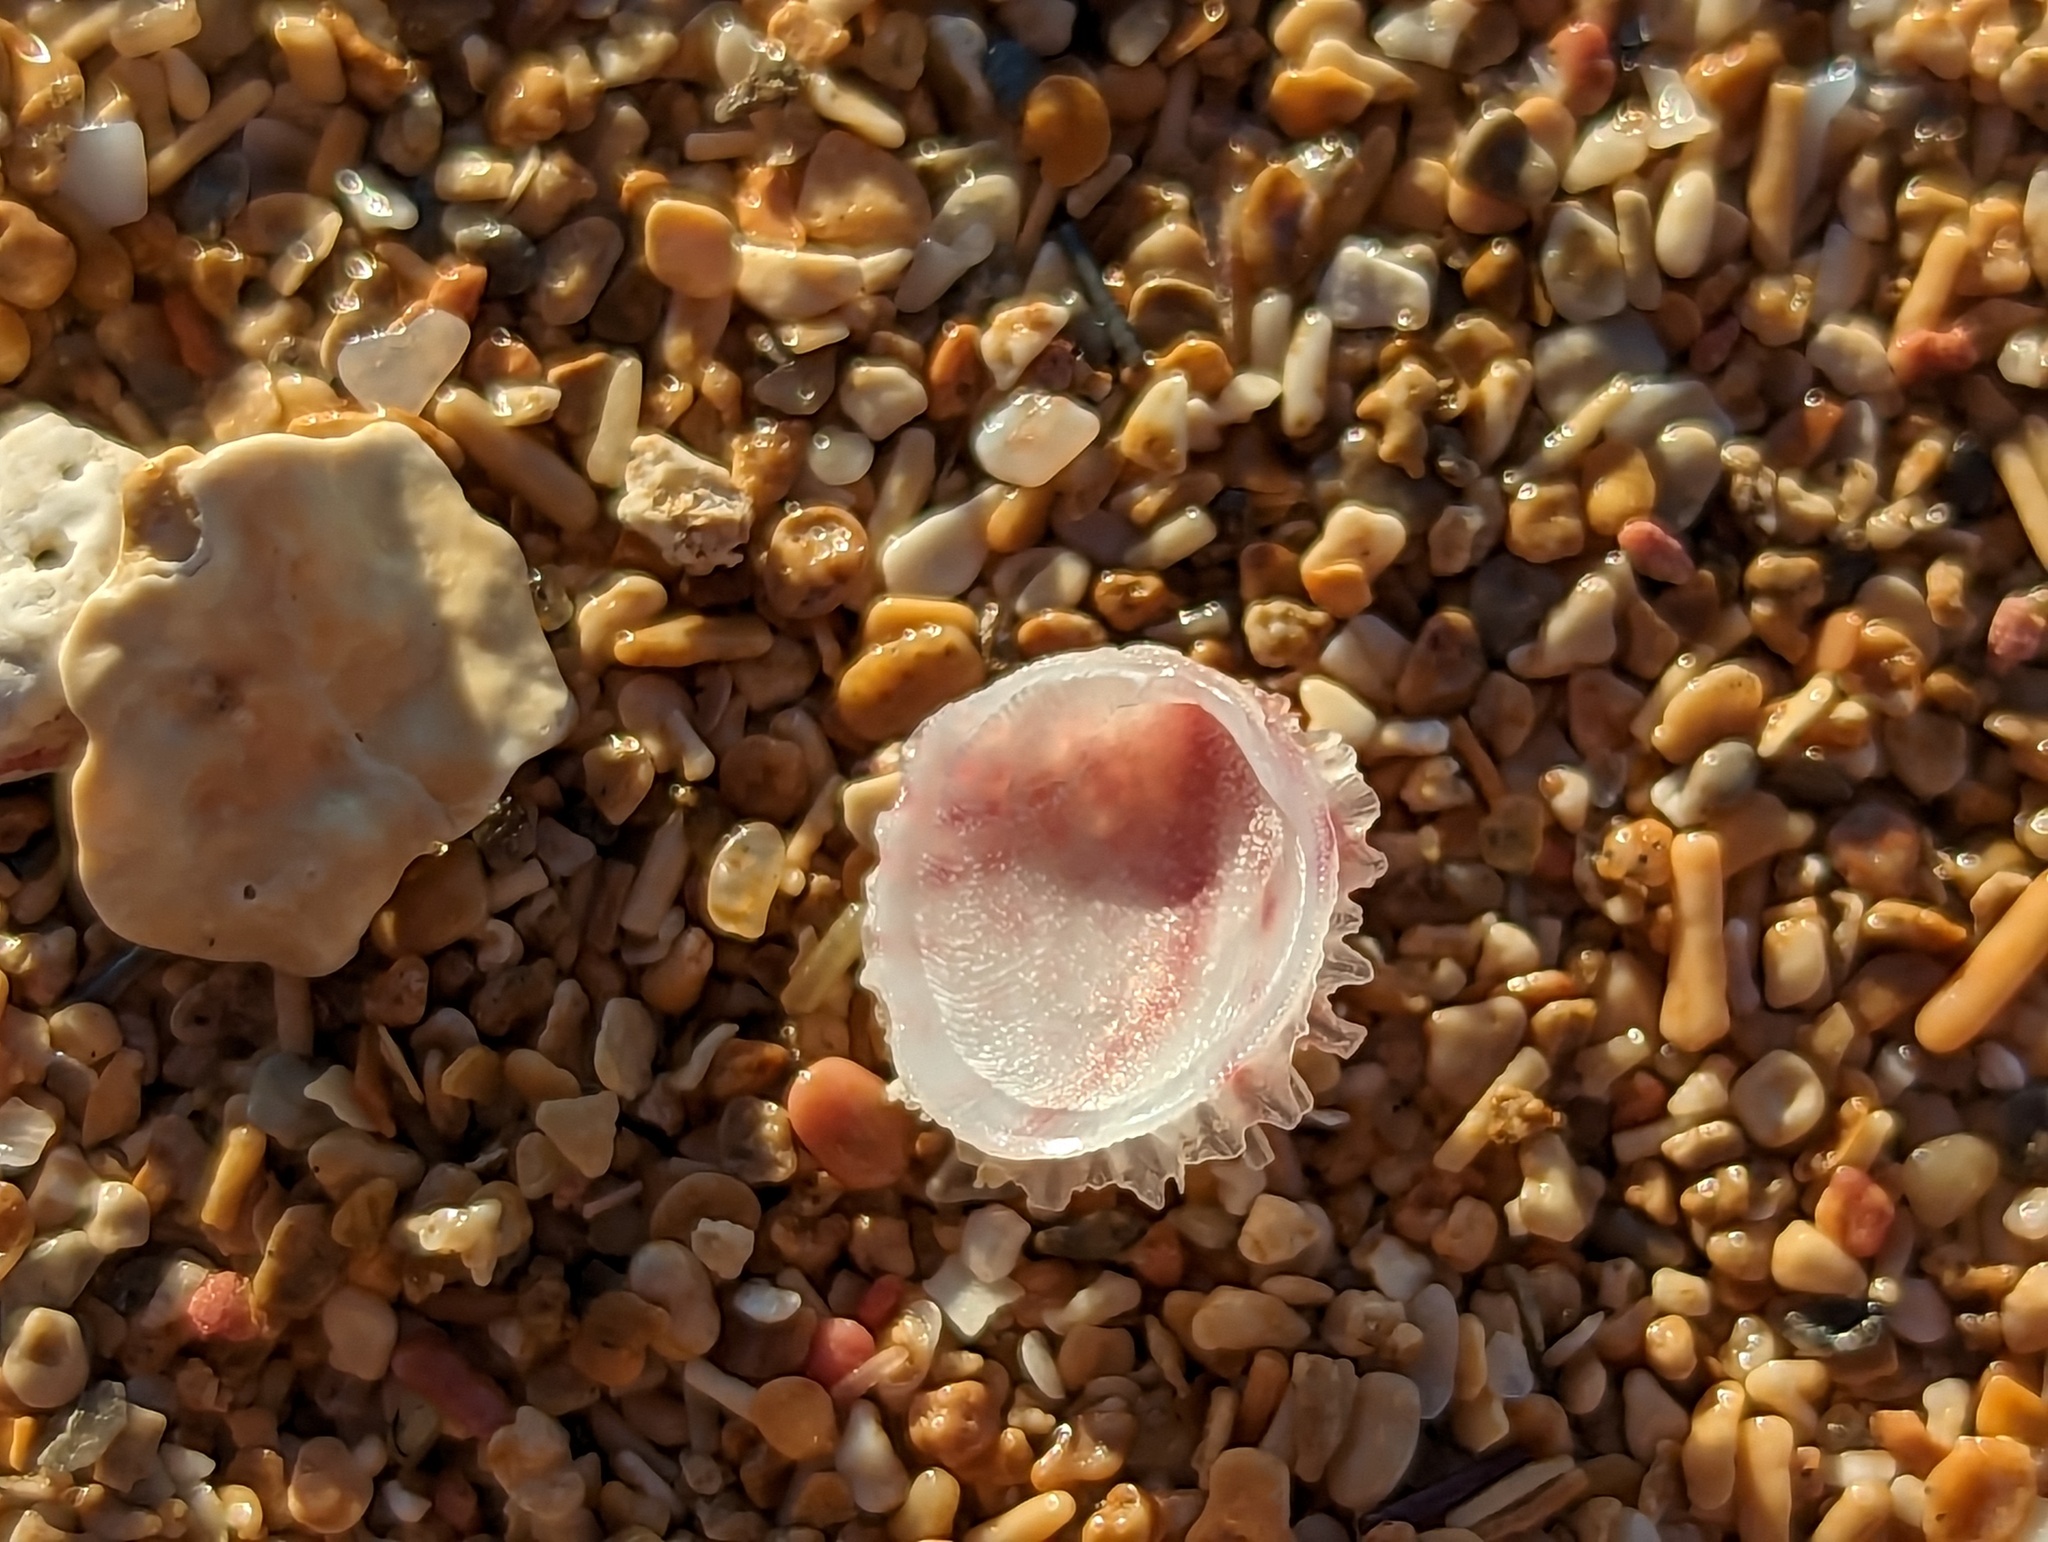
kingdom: Animalia
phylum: Mollusca
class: Bivalvia
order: Venerida
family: Chamidae
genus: Chama
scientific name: Chama florida
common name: Blushed jewelbox
